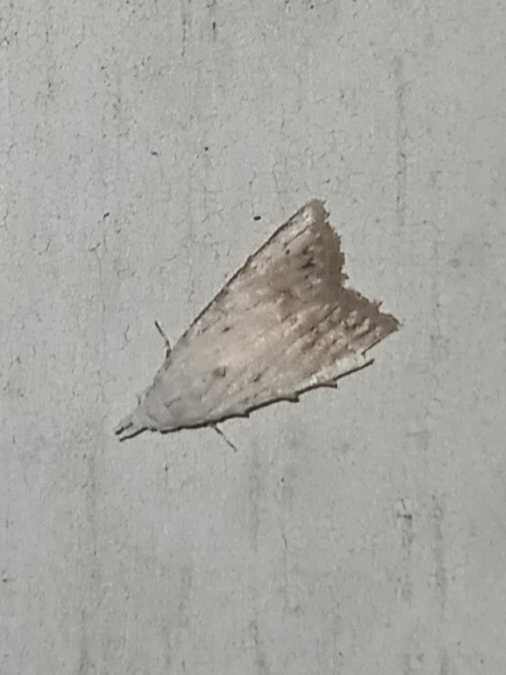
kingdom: Animalia
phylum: Arthropoda
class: Insecta
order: Lepidoptera
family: Nolidae
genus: Nola
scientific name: Nola cereella
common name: Sorghum webworm moth
